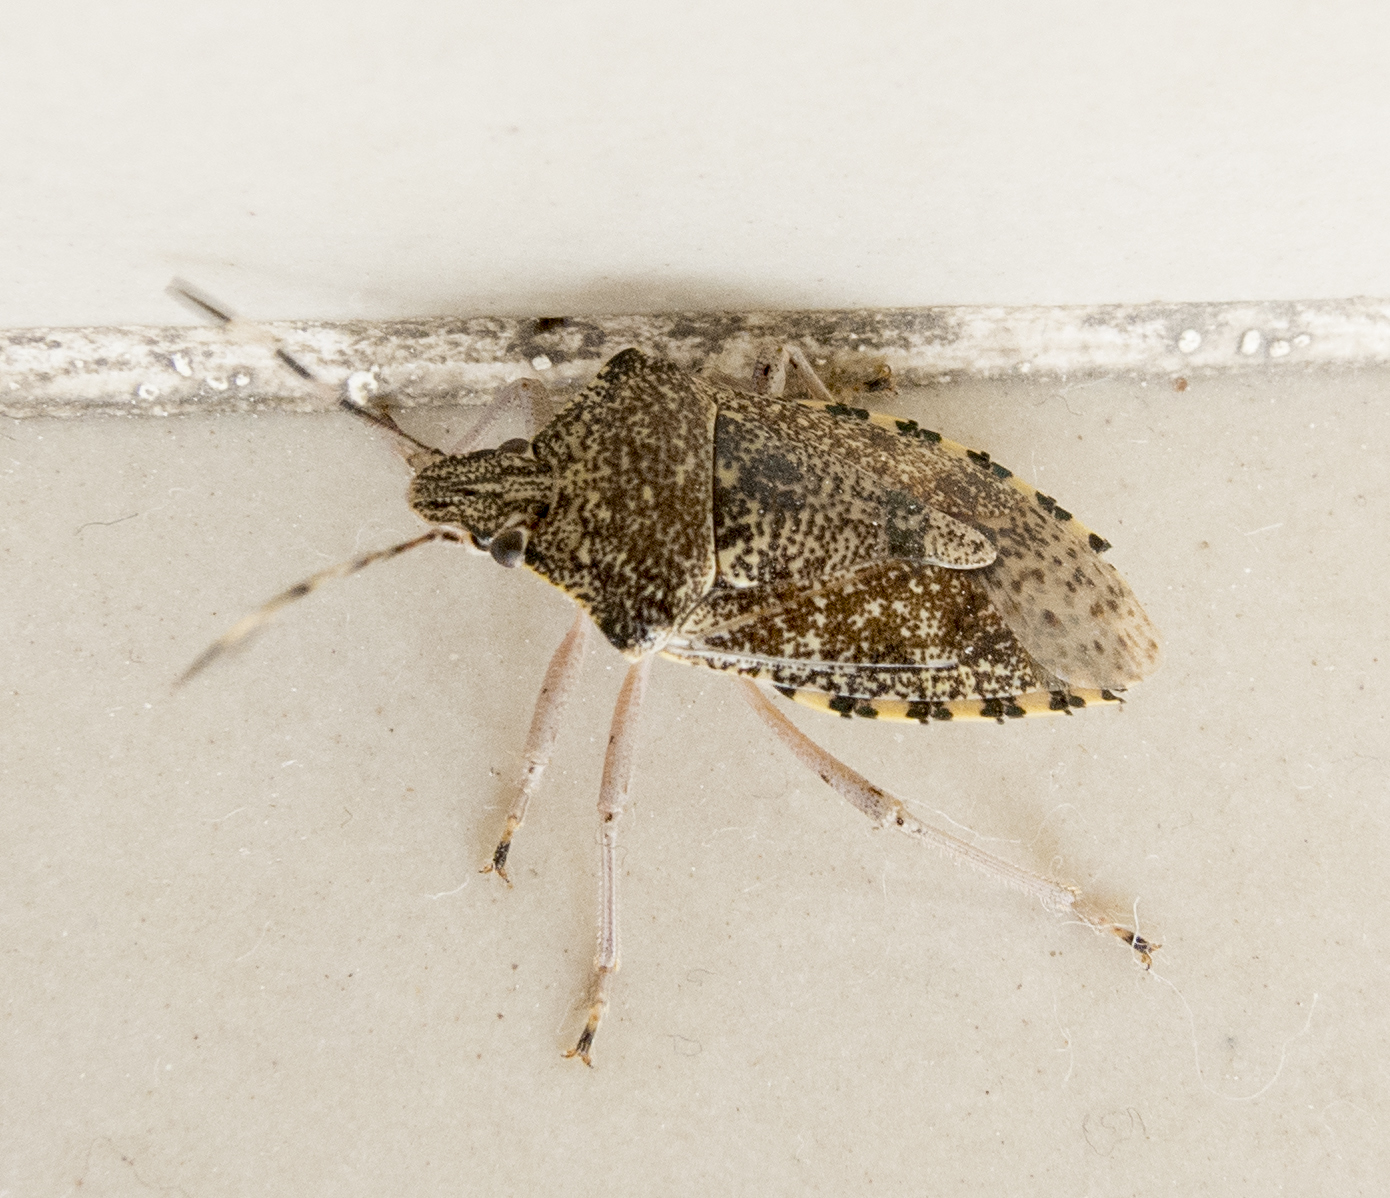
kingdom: Animalia
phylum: Arthropoda
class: Insecta
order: Hemiptera
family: Pentatomidae
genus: Rhaphigaster
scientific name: Rhaphigaster nebulosa
